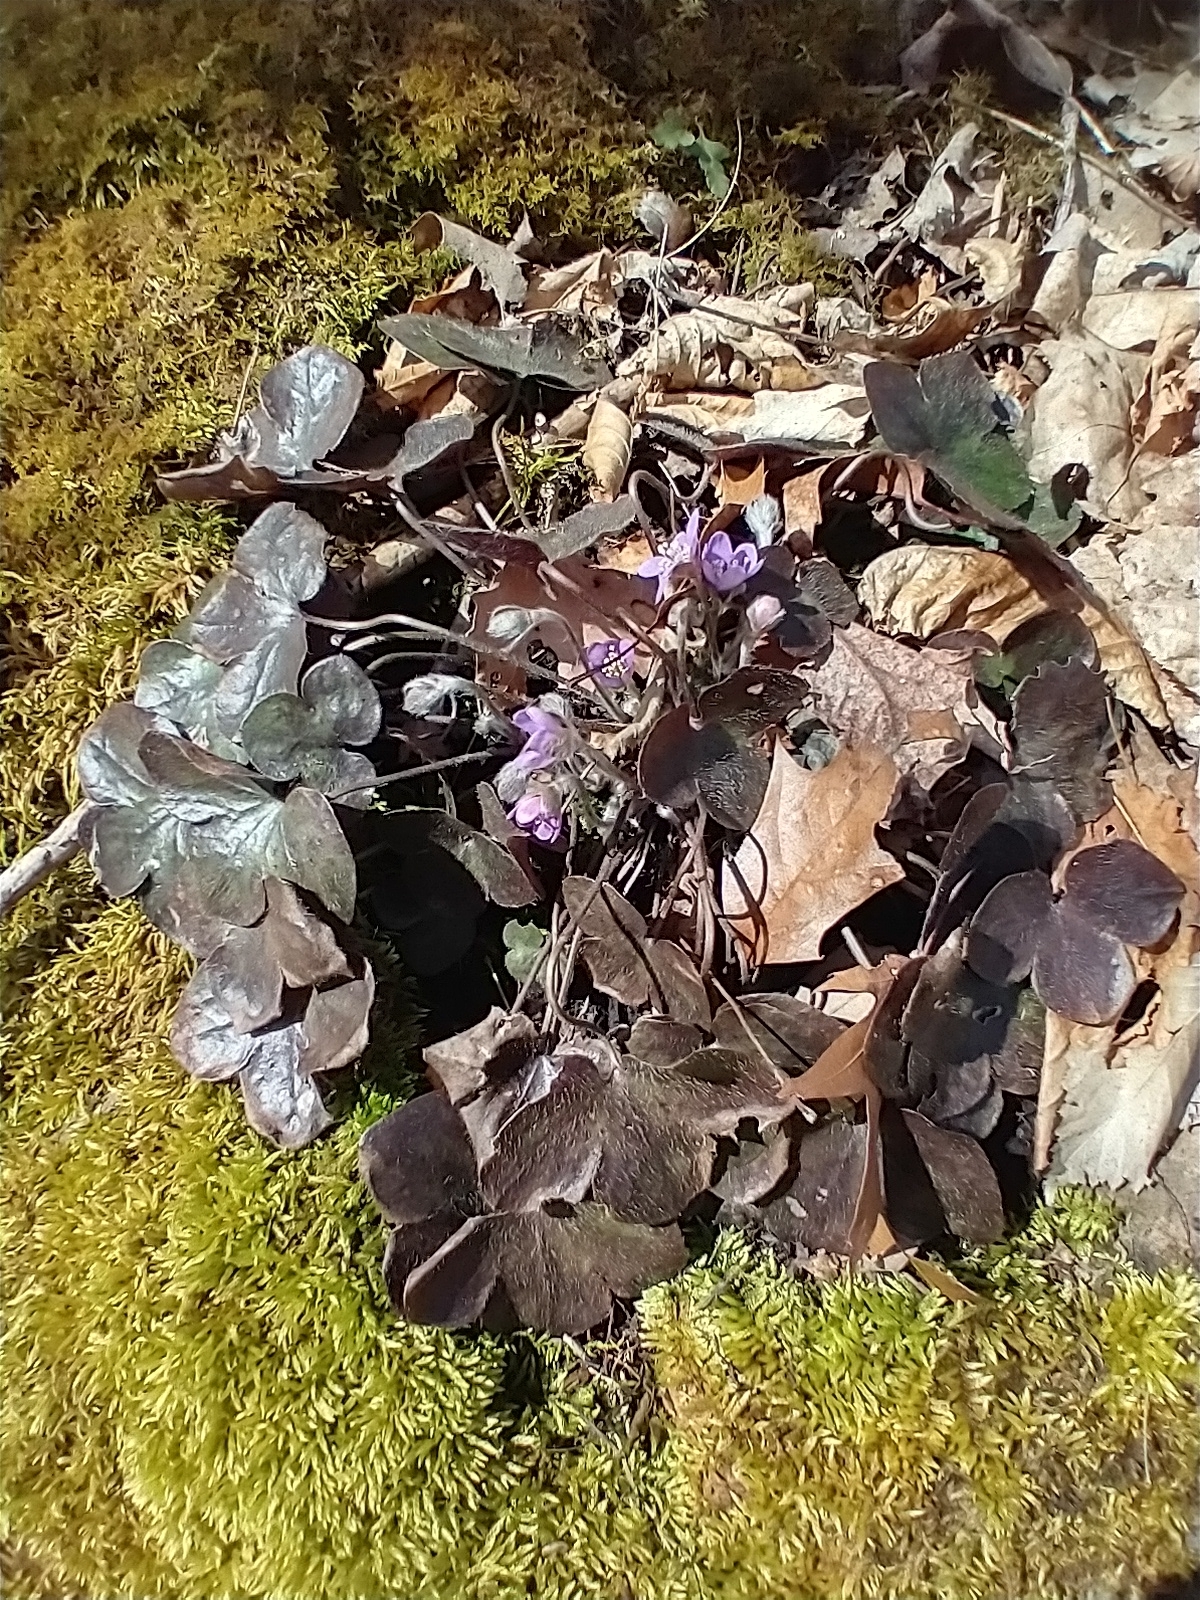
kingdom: Plantae
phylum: Tracheophyta
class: Magnoliopsida
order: Ranunculales
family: Ranunculaceae
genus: Hepatica
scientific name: Hepatica americana
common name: American hepatica
